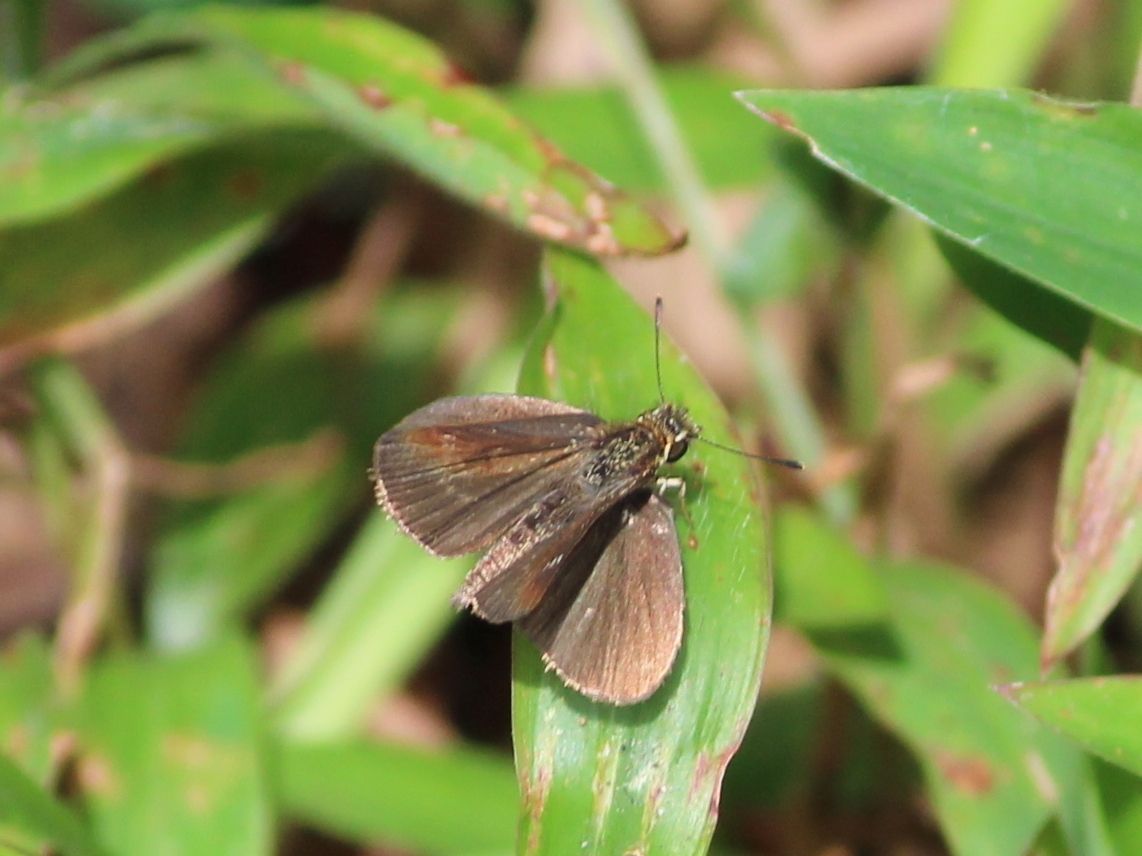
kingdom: Animalia
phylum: Arthropoda
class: Insecta
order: Lepidoptera
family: Hesperiidae
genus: Aeromachus
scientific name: Aeromachus pygmaeus
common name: Pygmy scrub hopper
